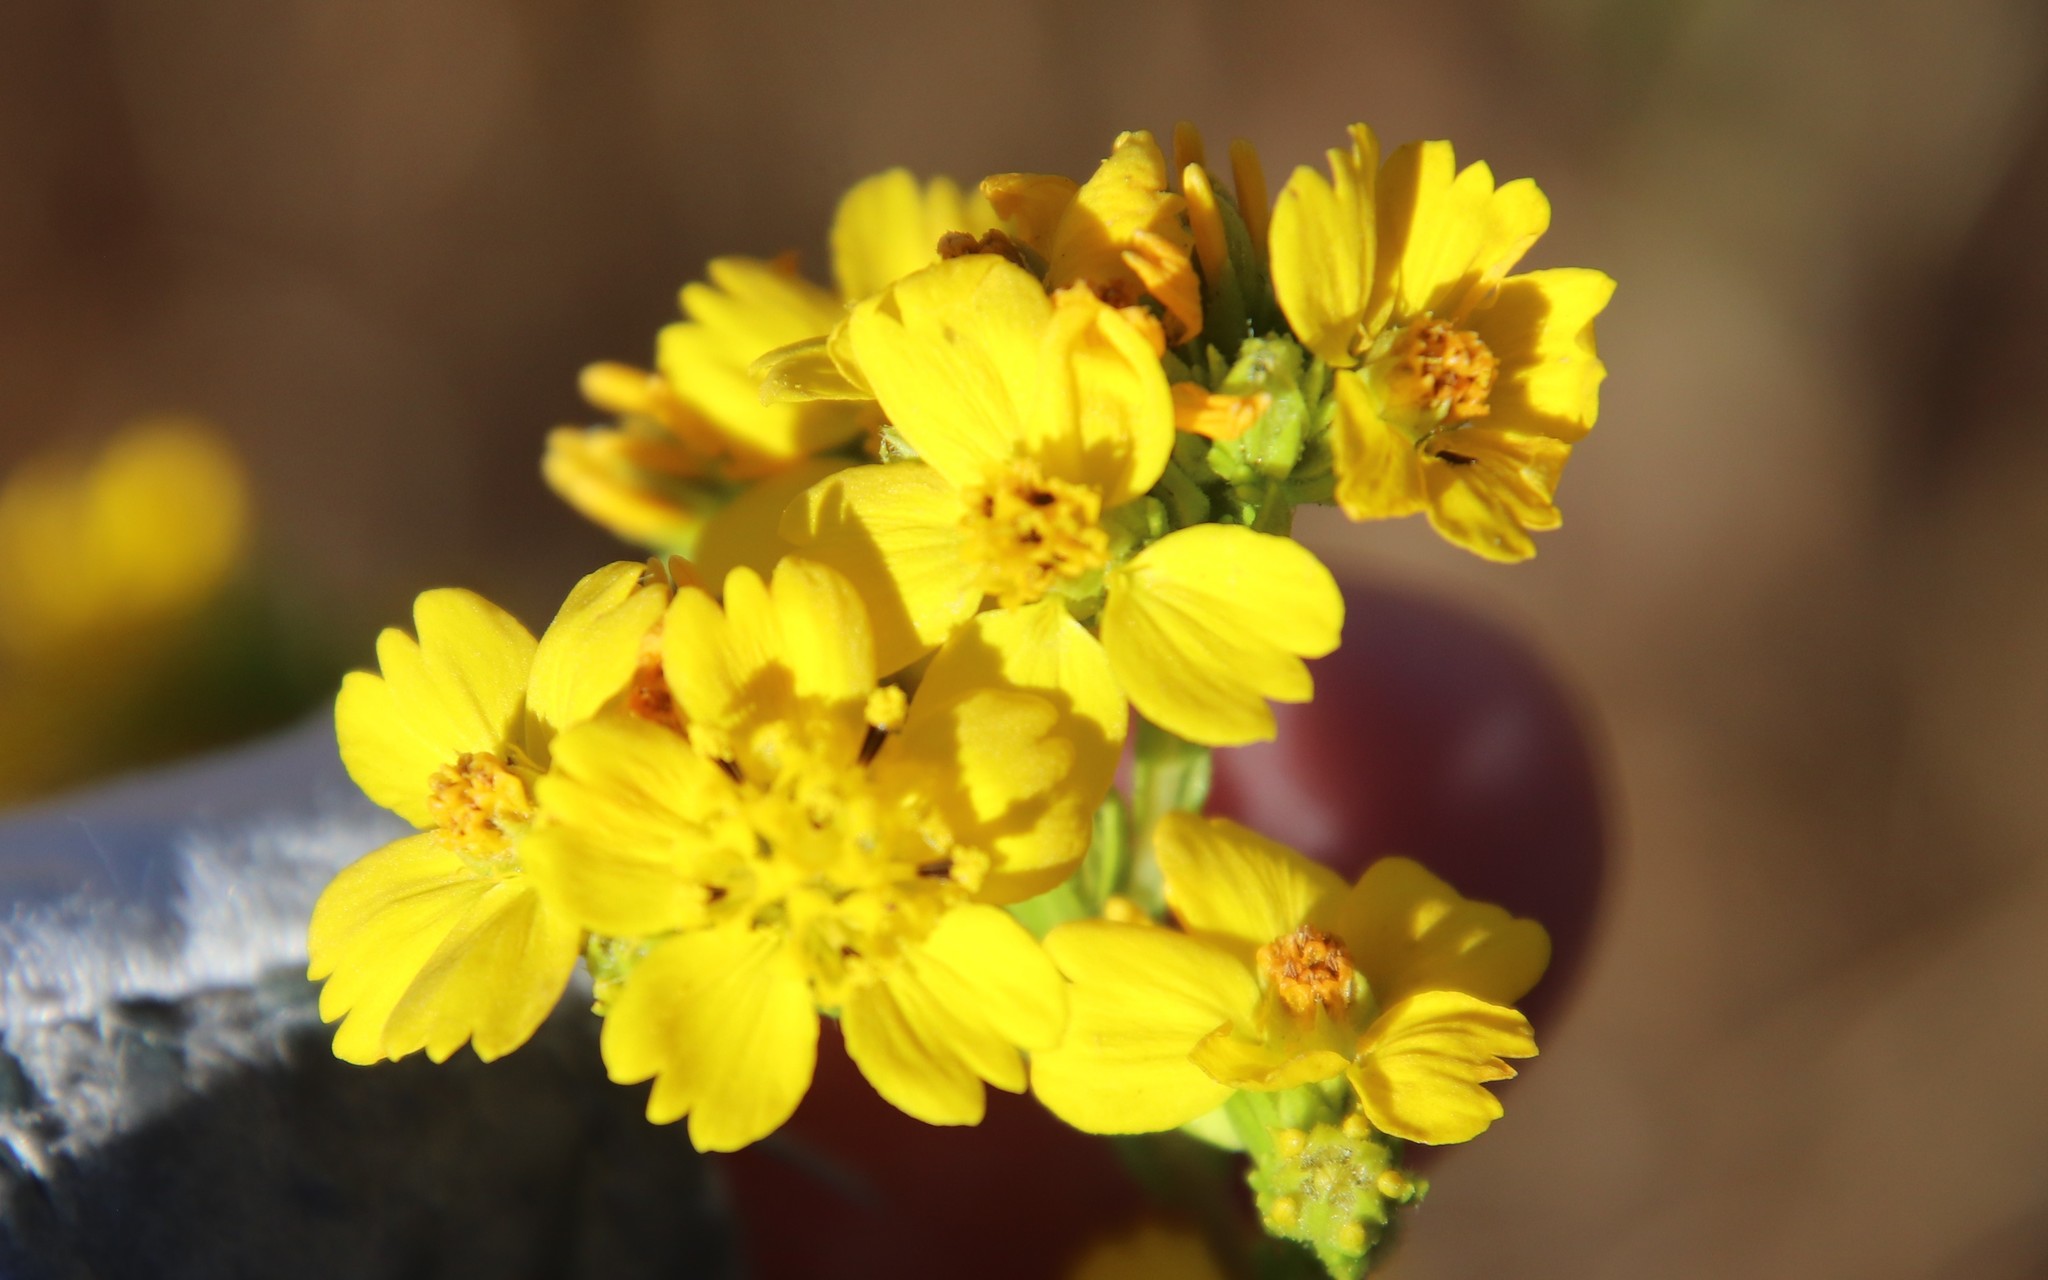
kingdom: Plantae
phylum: Tracheophyta
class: Magnoliopsida
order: Asterales
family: Asteraceae
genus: Deinandra
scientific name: Deinandra fasciculata
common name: Clustered tarweed
